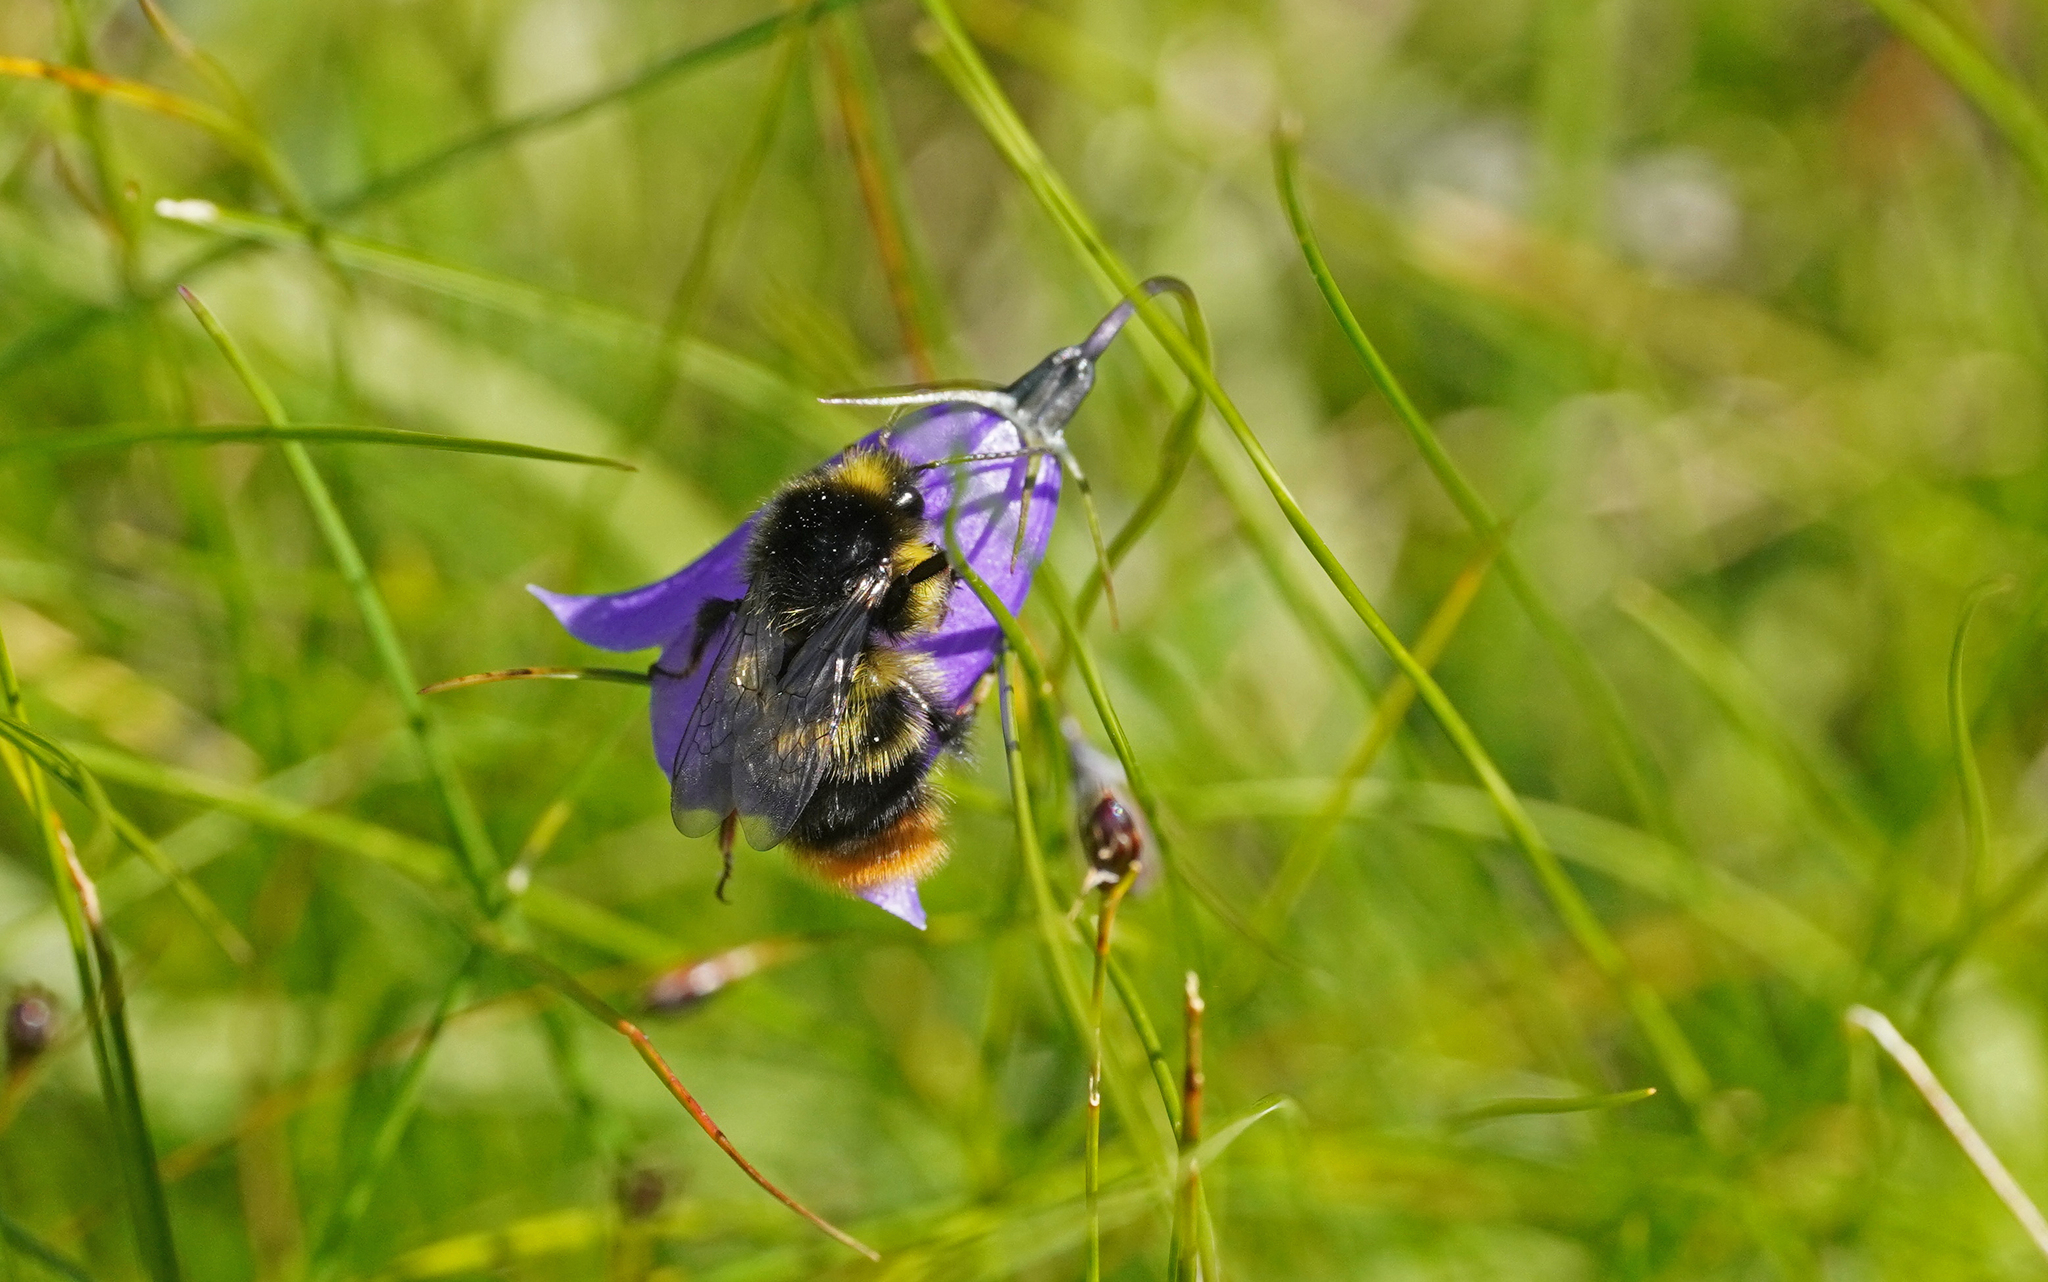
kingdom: Animalia
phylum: Arthropoda
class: Insecta
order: Hymenoptera
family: Apidae
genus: Bombus
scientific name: Bombus soroeensis
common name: Broken-belted humble-bee
